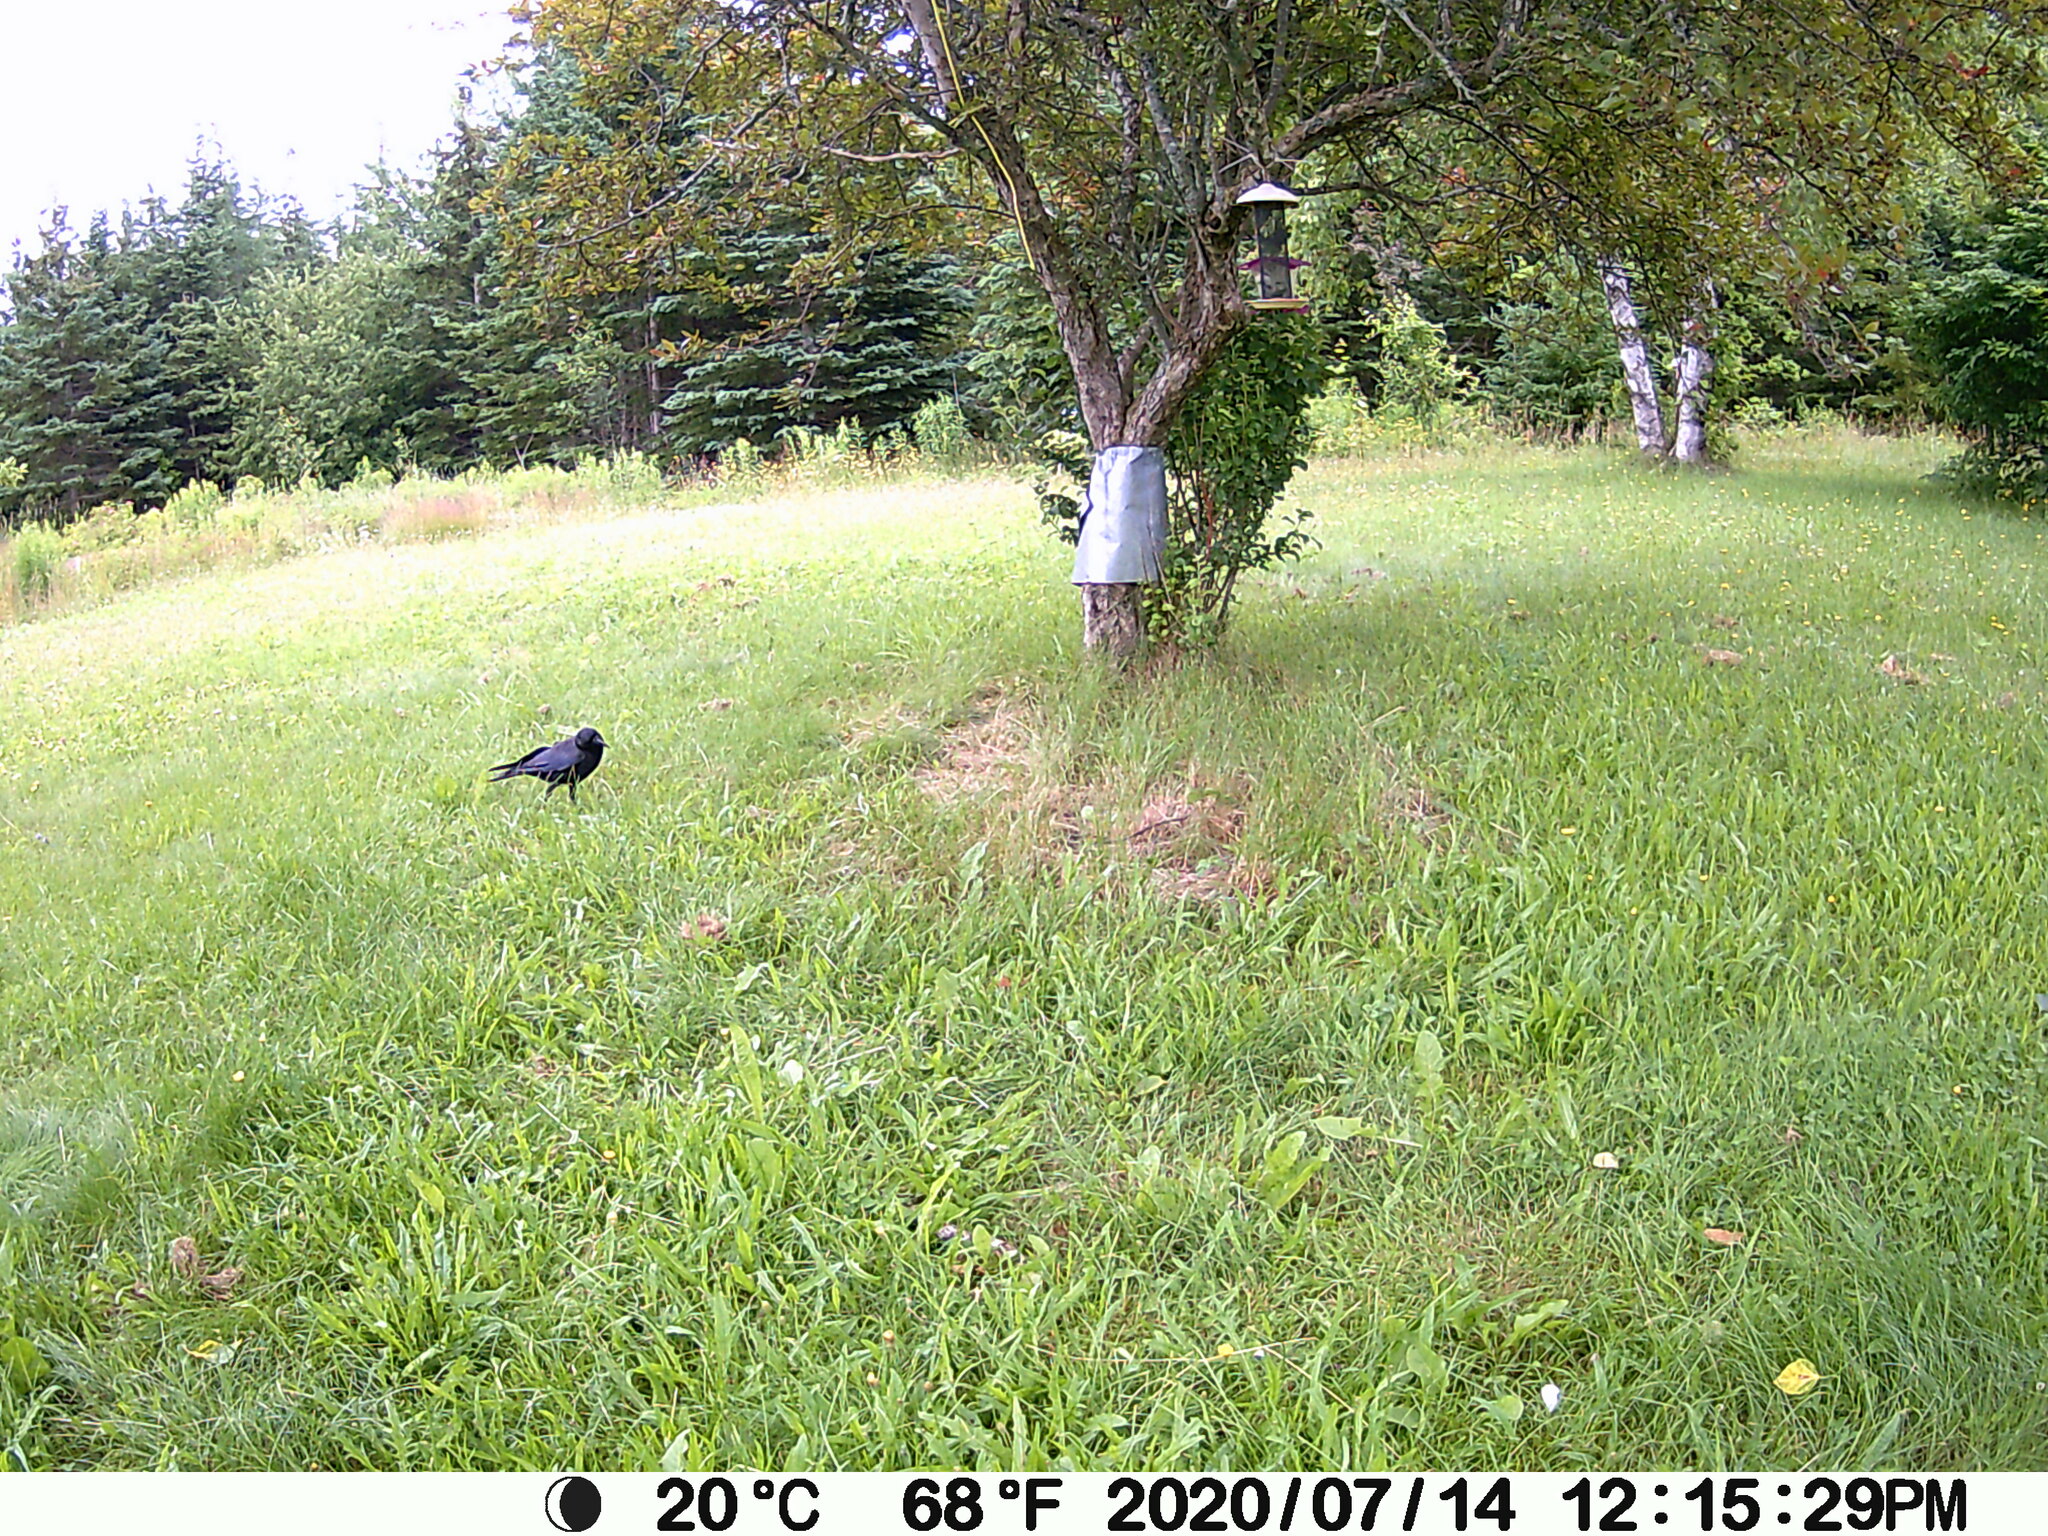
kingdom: Animalia
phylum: Chordata
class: Aves
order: Passeriformes
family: Corvidae
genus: Corvus
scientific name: Corvus brachyrhynchos
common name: American crow
